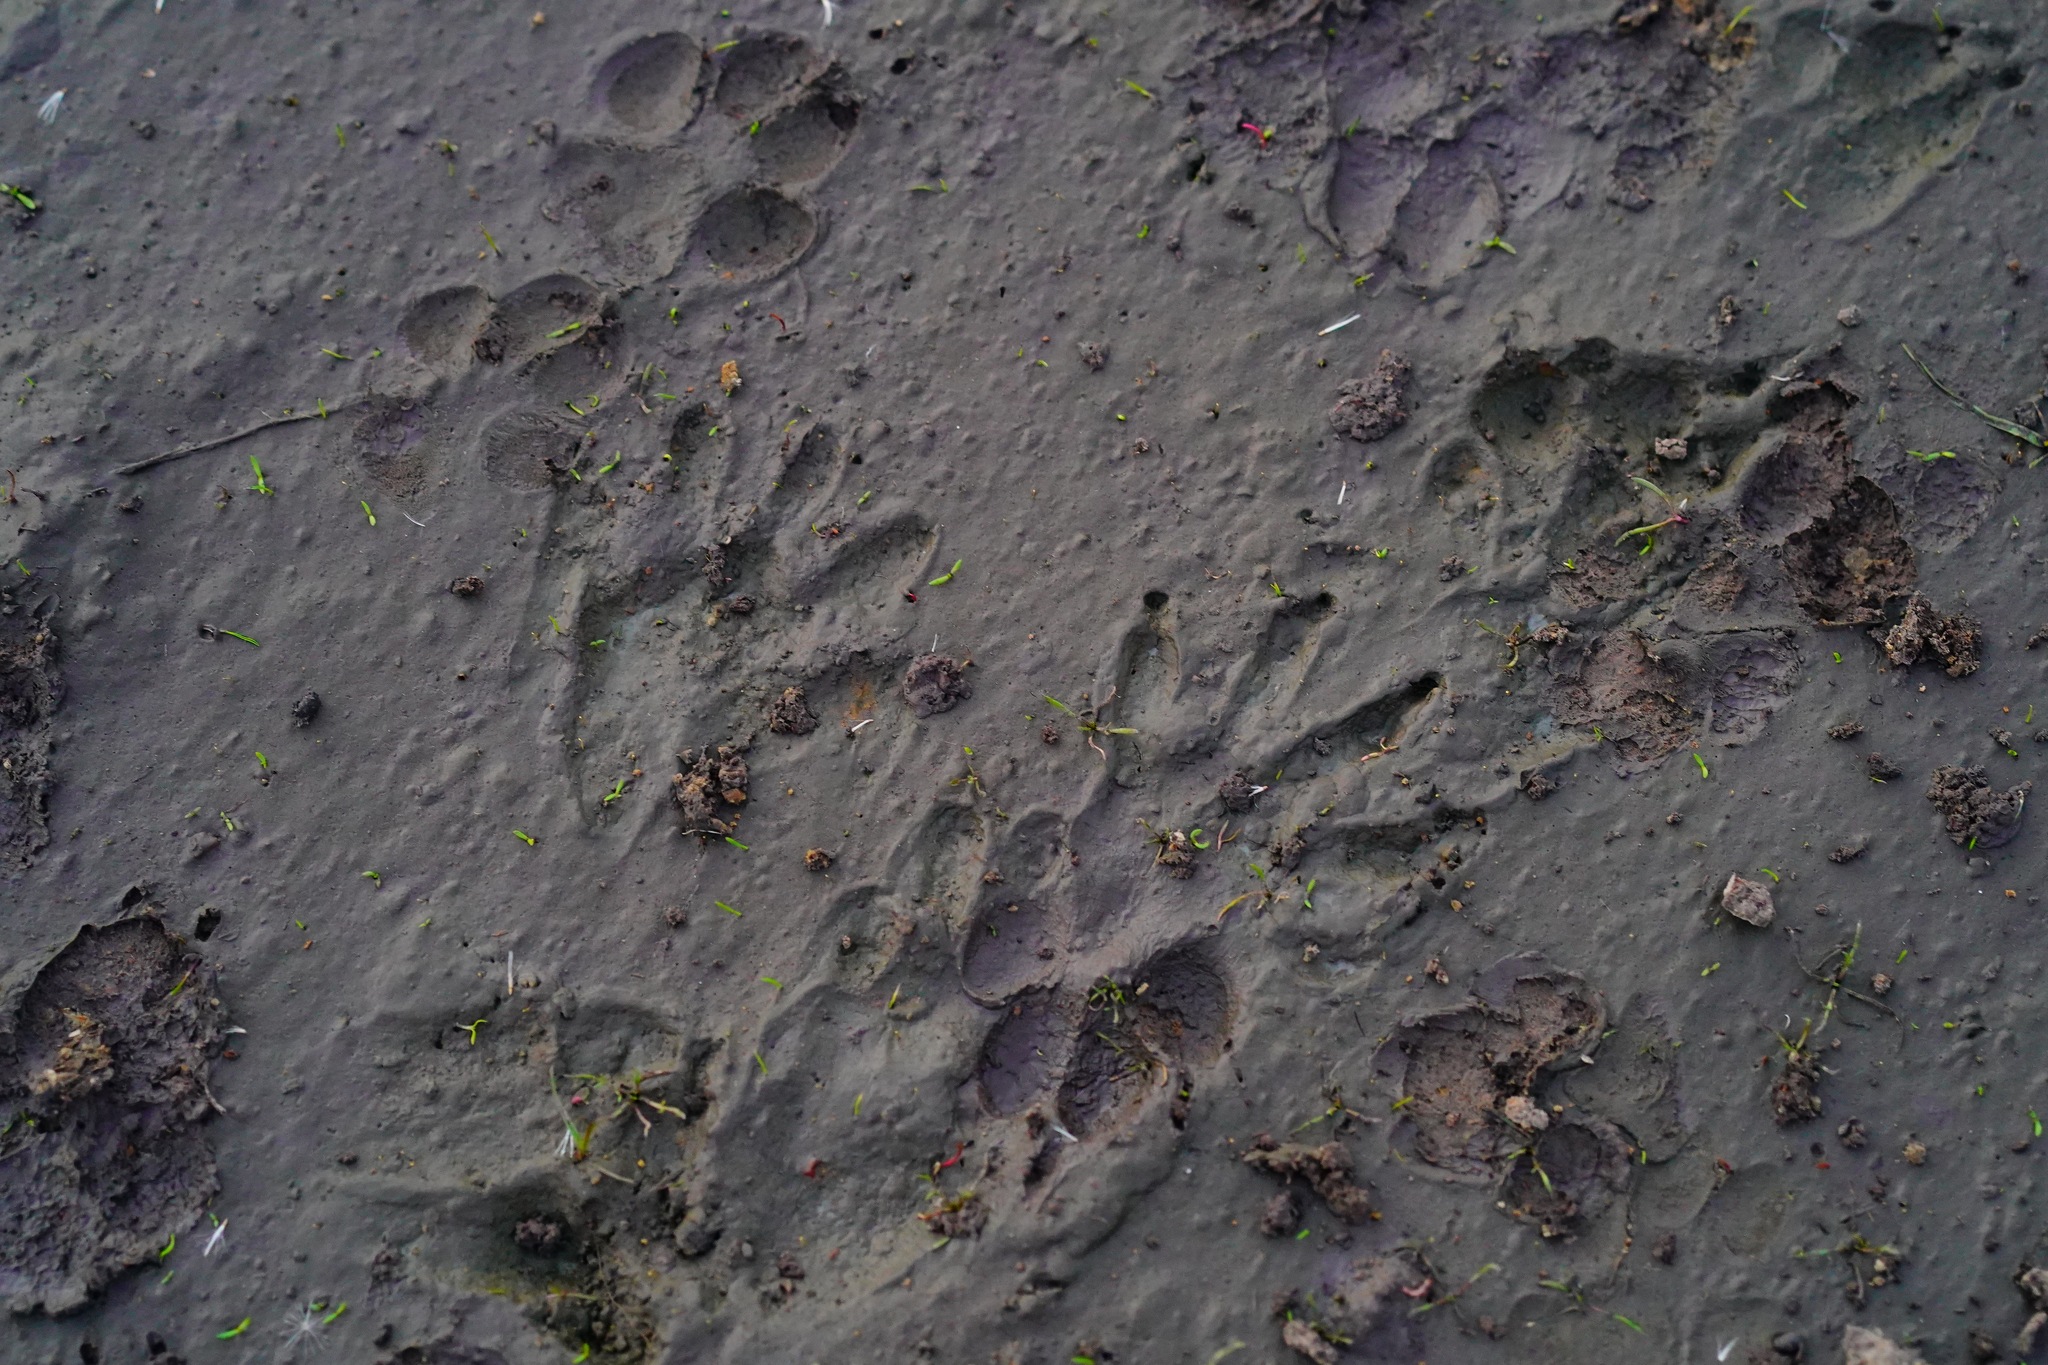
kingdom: Animalia
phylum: Chordata
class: Mammalia
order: Carnivora
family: Procyonidae
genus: Procyon
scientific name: Procyon lotor
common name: Raccoon
